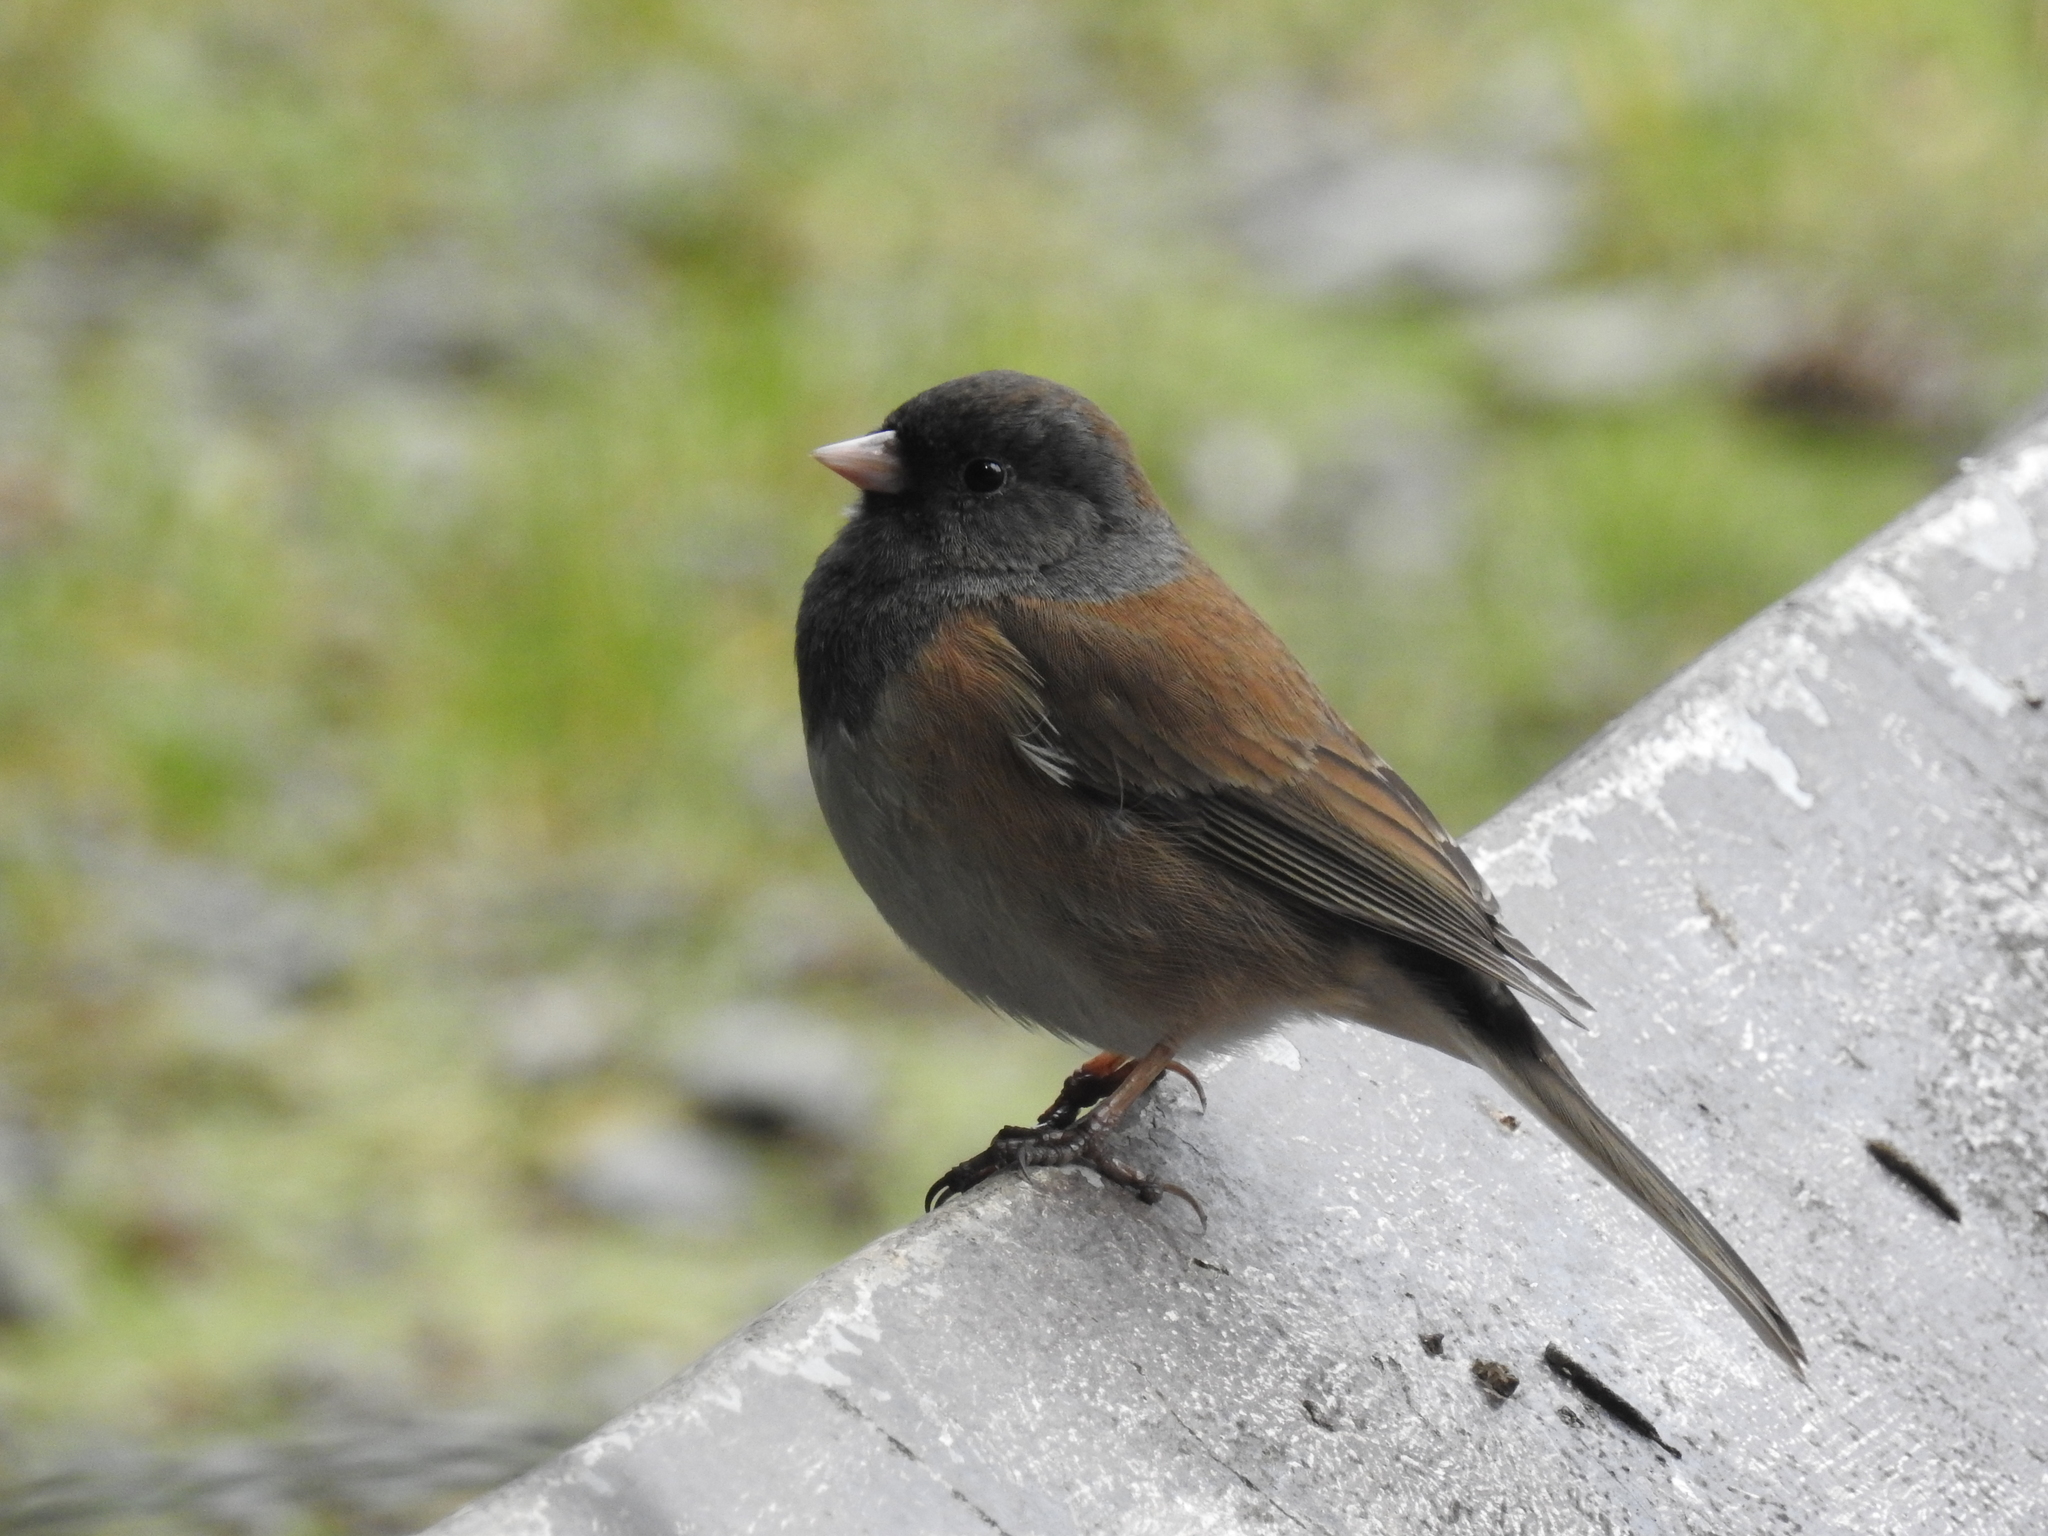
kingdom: Animalia
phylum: Chordata
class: Aves
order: Passeriformes
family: Passerellidae
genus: Junco
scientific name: Junco hyemalis
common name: Dark-eyed junco
